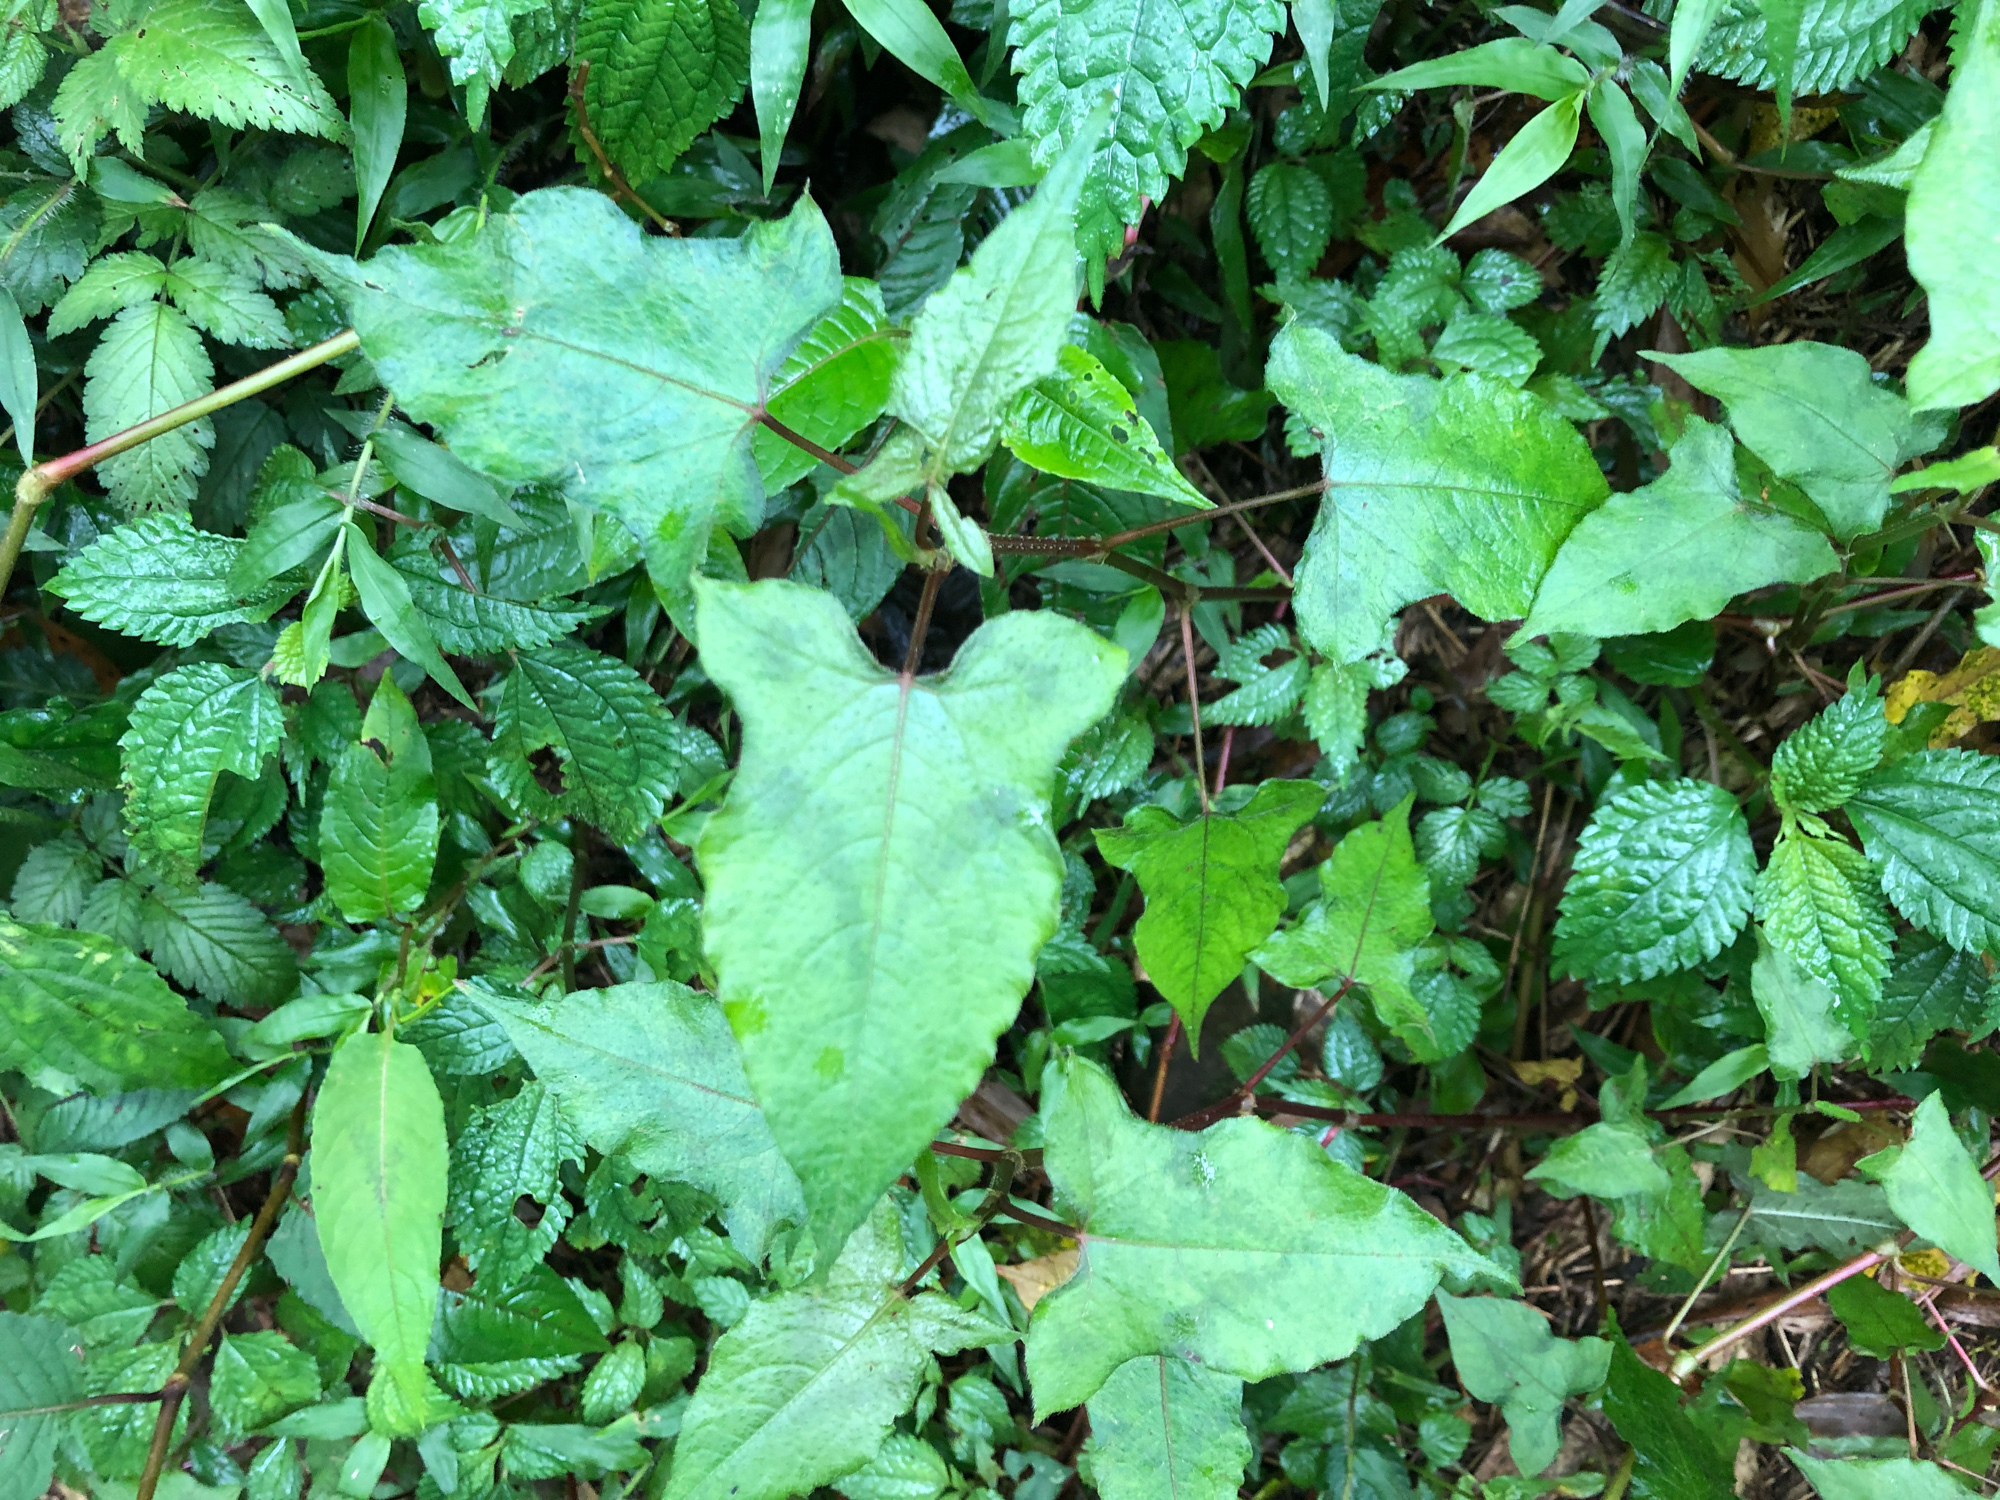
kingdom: Plantae
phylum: Tracheophyta
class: Magnoliopsida
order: Caryophyllales
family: Polygonaceae
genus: Persicaria
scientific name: Persicaria biconvexa
